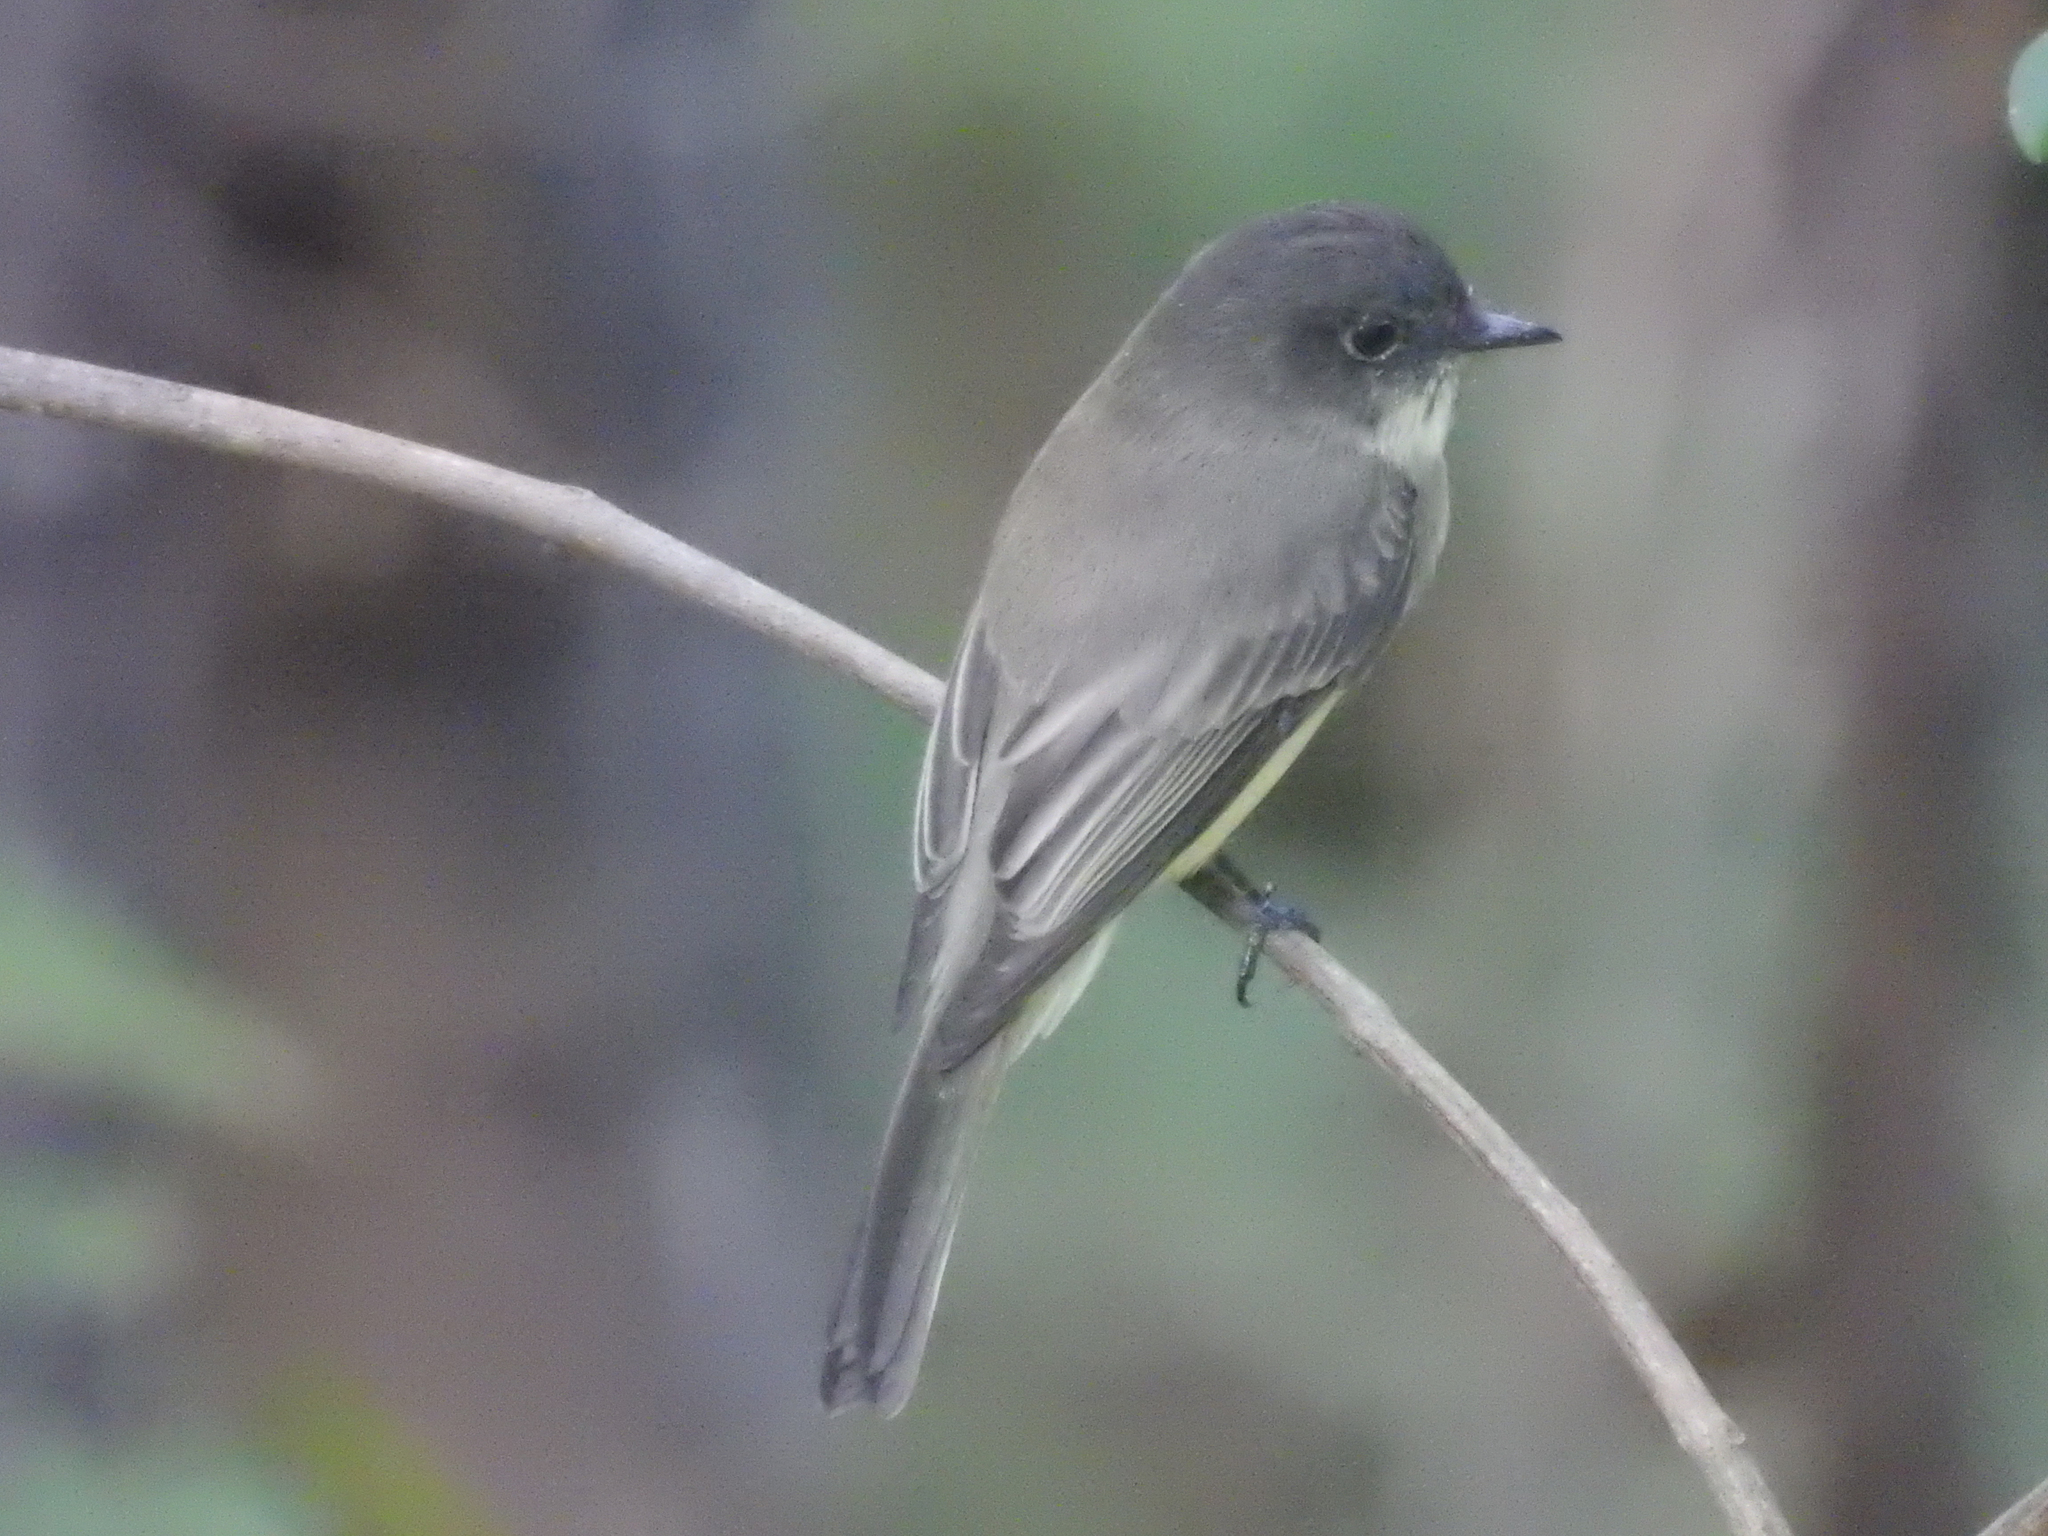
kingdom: Animalia
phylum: Chordata
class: Aves
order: Passeriformes
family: Tyrannidae
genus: Sayornis
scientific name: Sayornis phoebe
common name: Eastern phoebe
